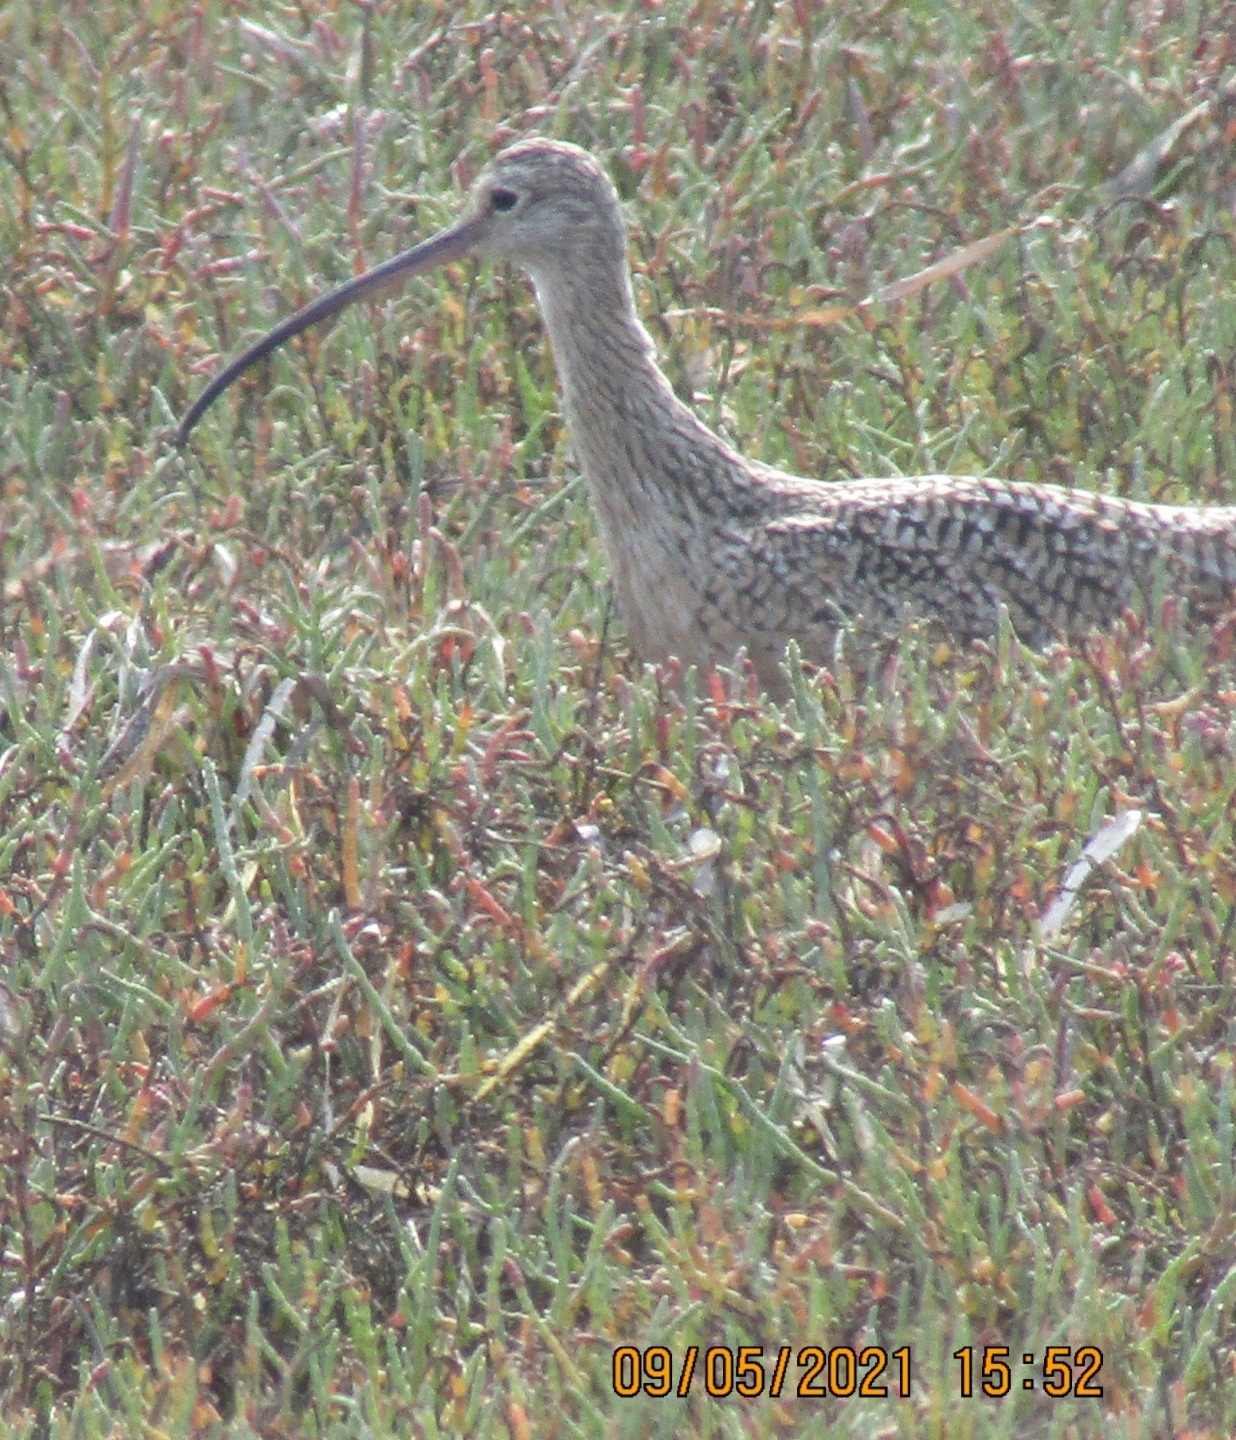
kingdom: Animalia
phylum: Chordata
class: Aves
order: Charadriiformes
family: Scolopacidae
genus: Numenius
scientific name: Numenius americanus
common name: Long-billed curlew
